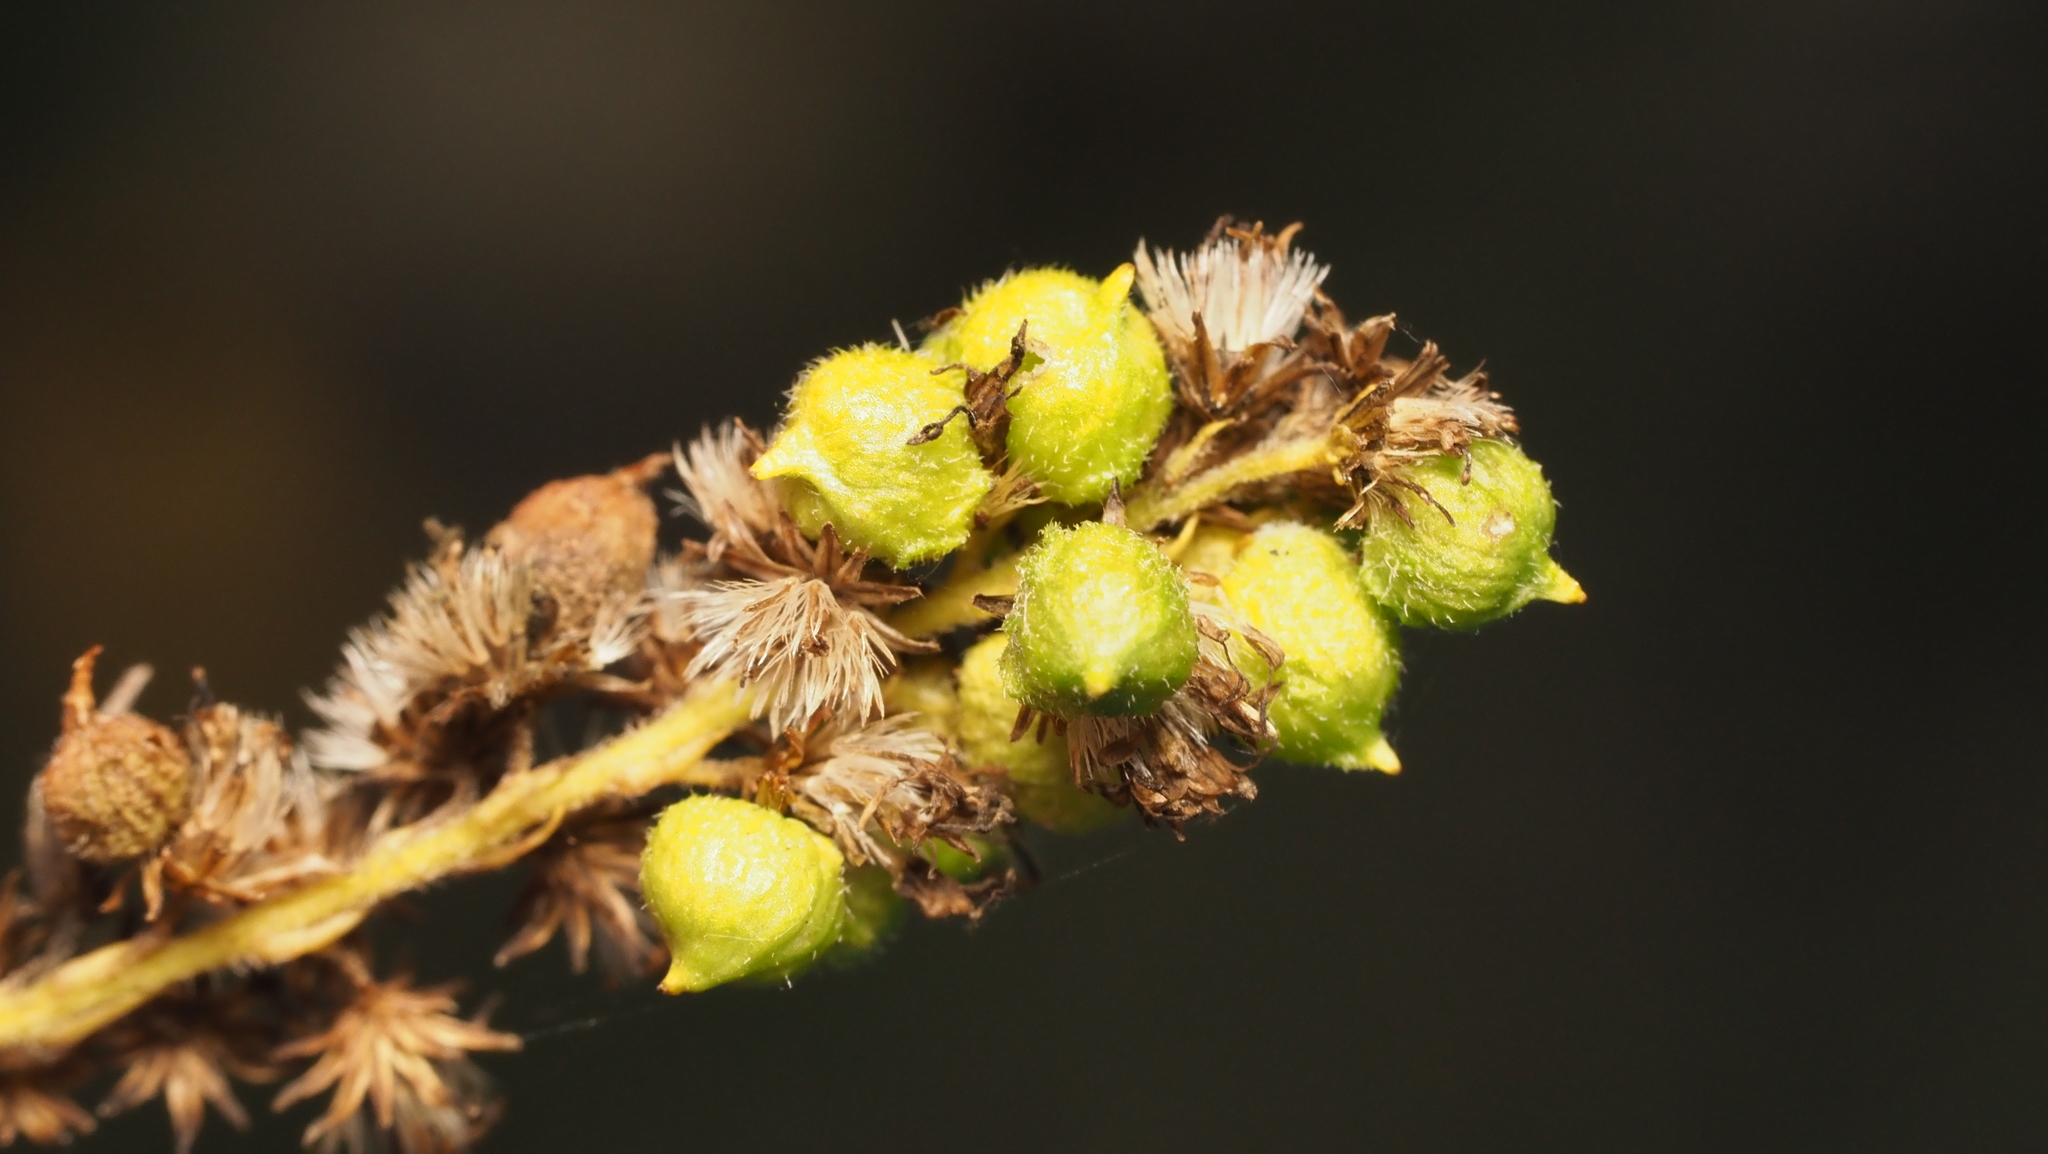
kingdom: Animalia
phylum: Arthropoda
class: Insecta
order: Diptera
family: Cecidomyiidae
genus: Schizomyia
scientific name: Schizomyia racemicola
